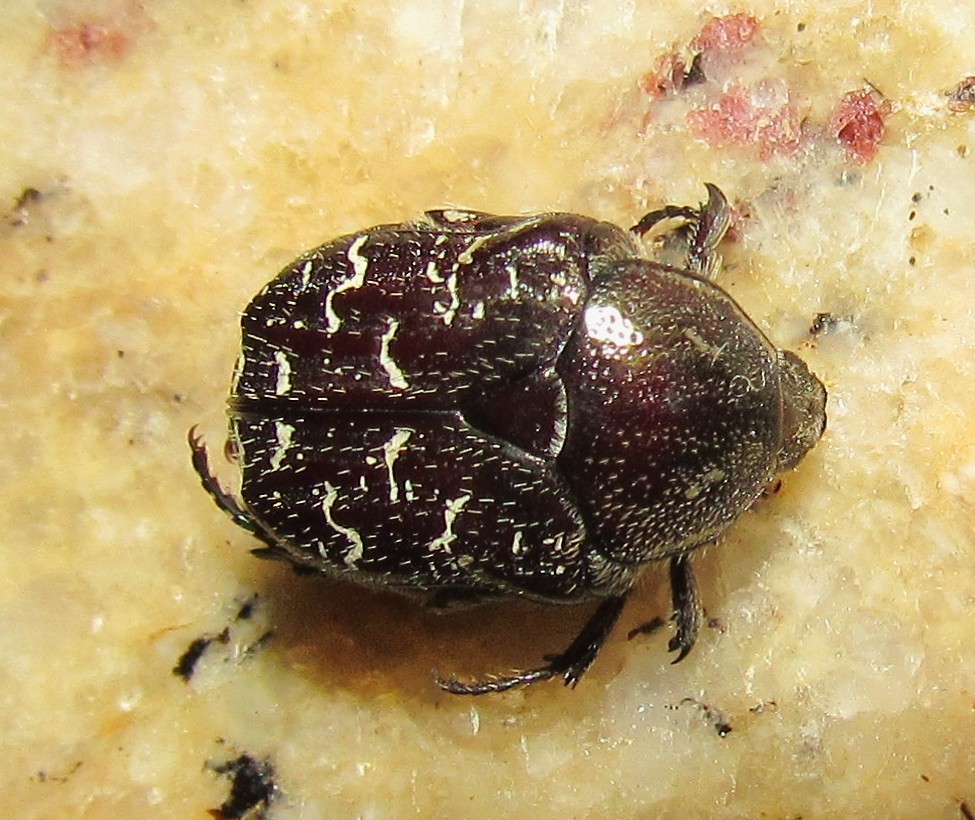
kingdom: Animalia
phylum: Arthropoda
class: Insecta
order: Coleoptera
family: Scarabaeidae
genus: Euphoria
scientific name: Euphoria lurida
